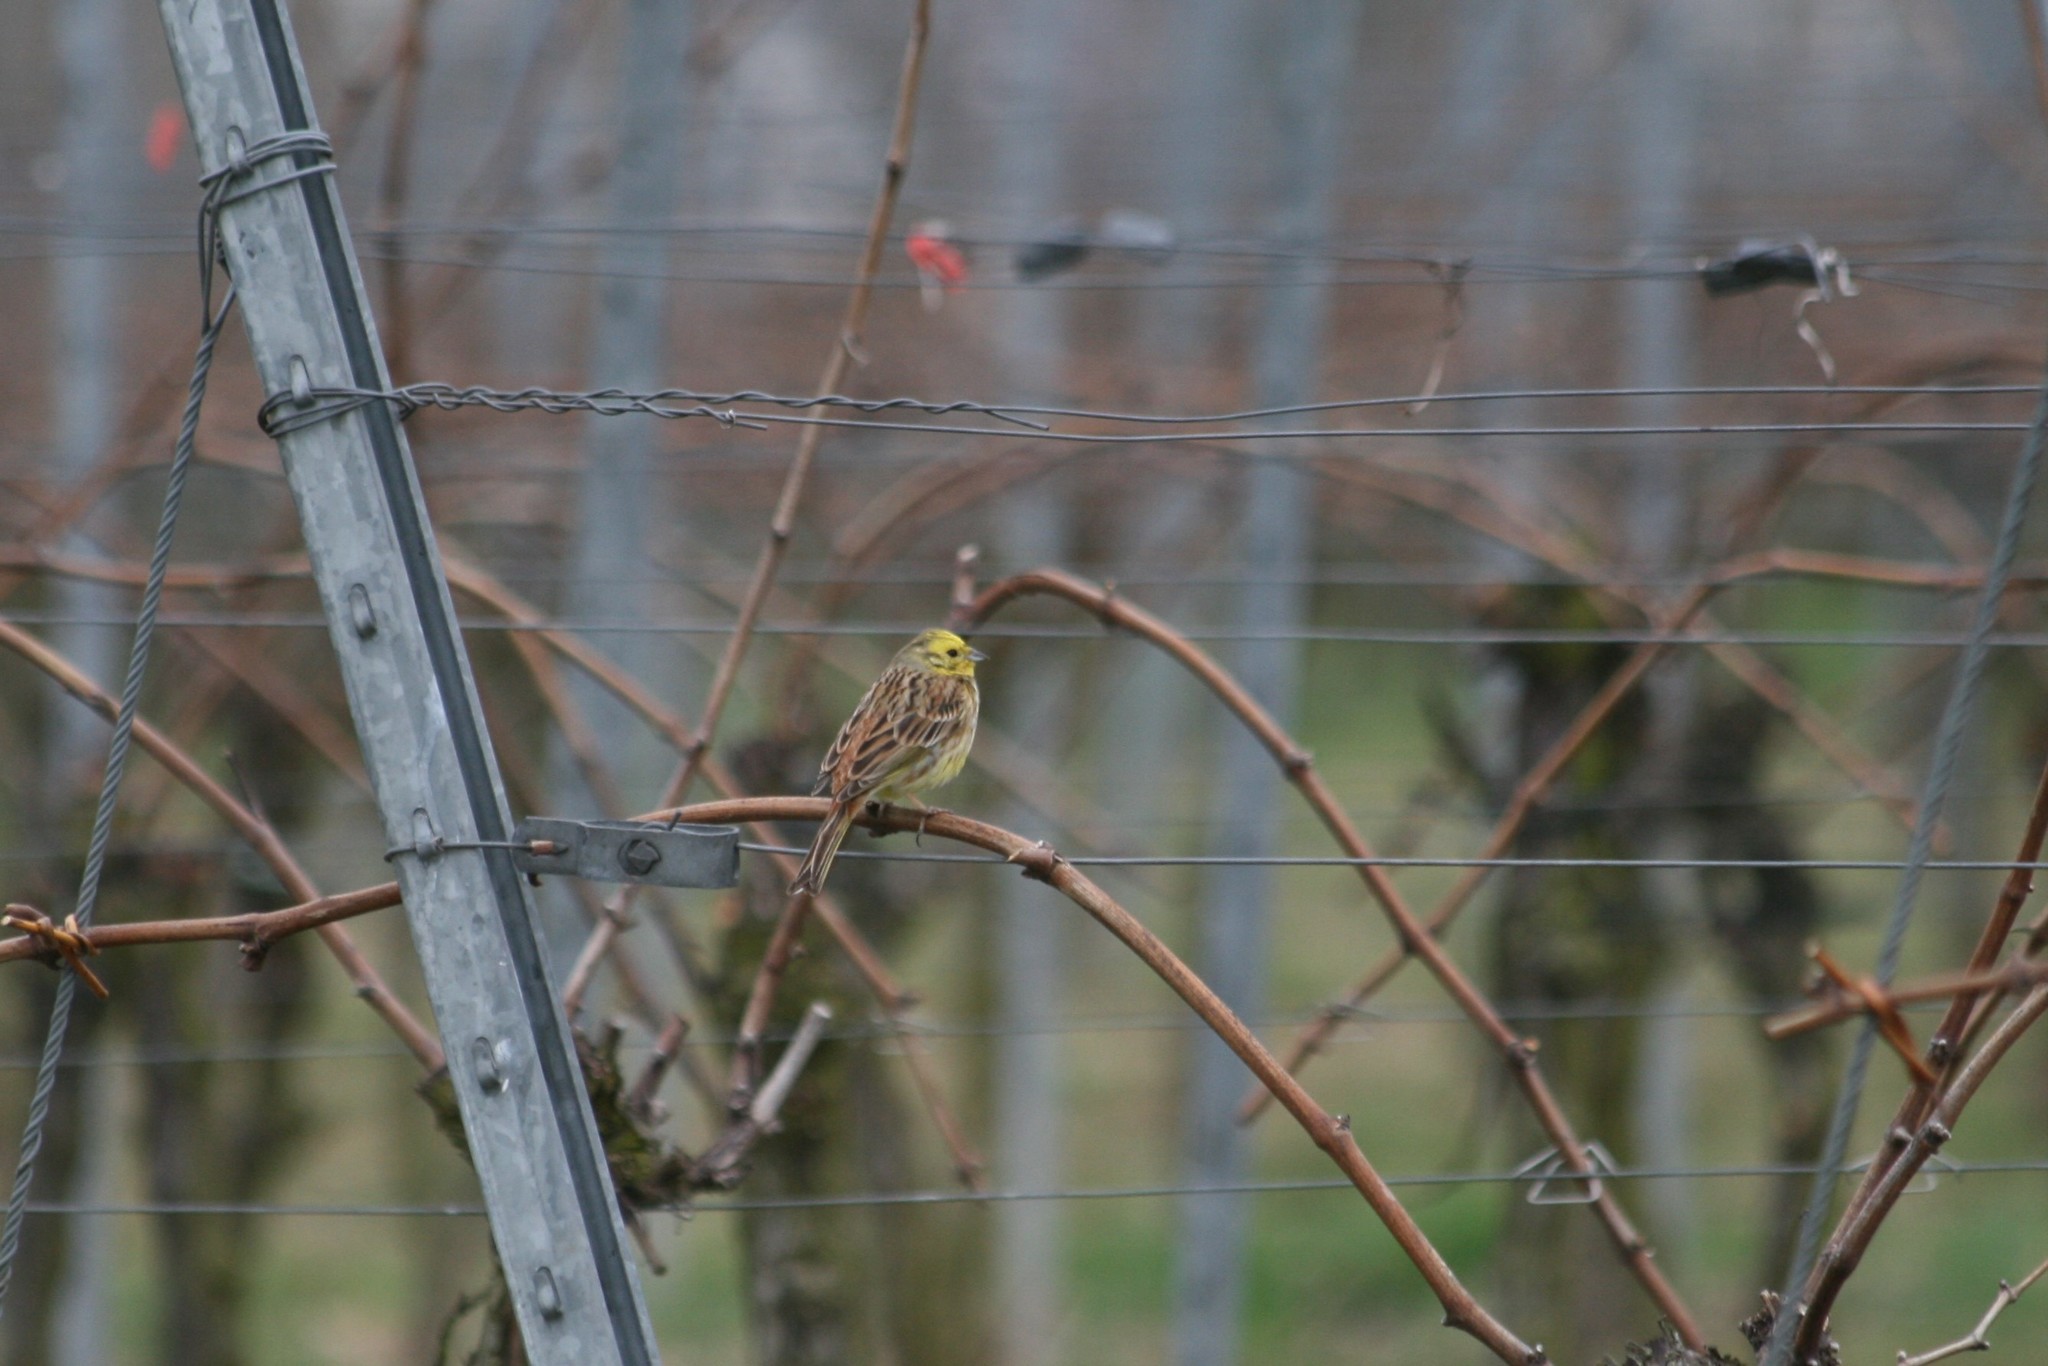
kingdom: Animalia
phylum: Chordata
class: Aves
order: Passeriformes
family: Emberizidae
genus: Emberiza
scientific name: Emberiza citrinella
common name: Yellowhammer
